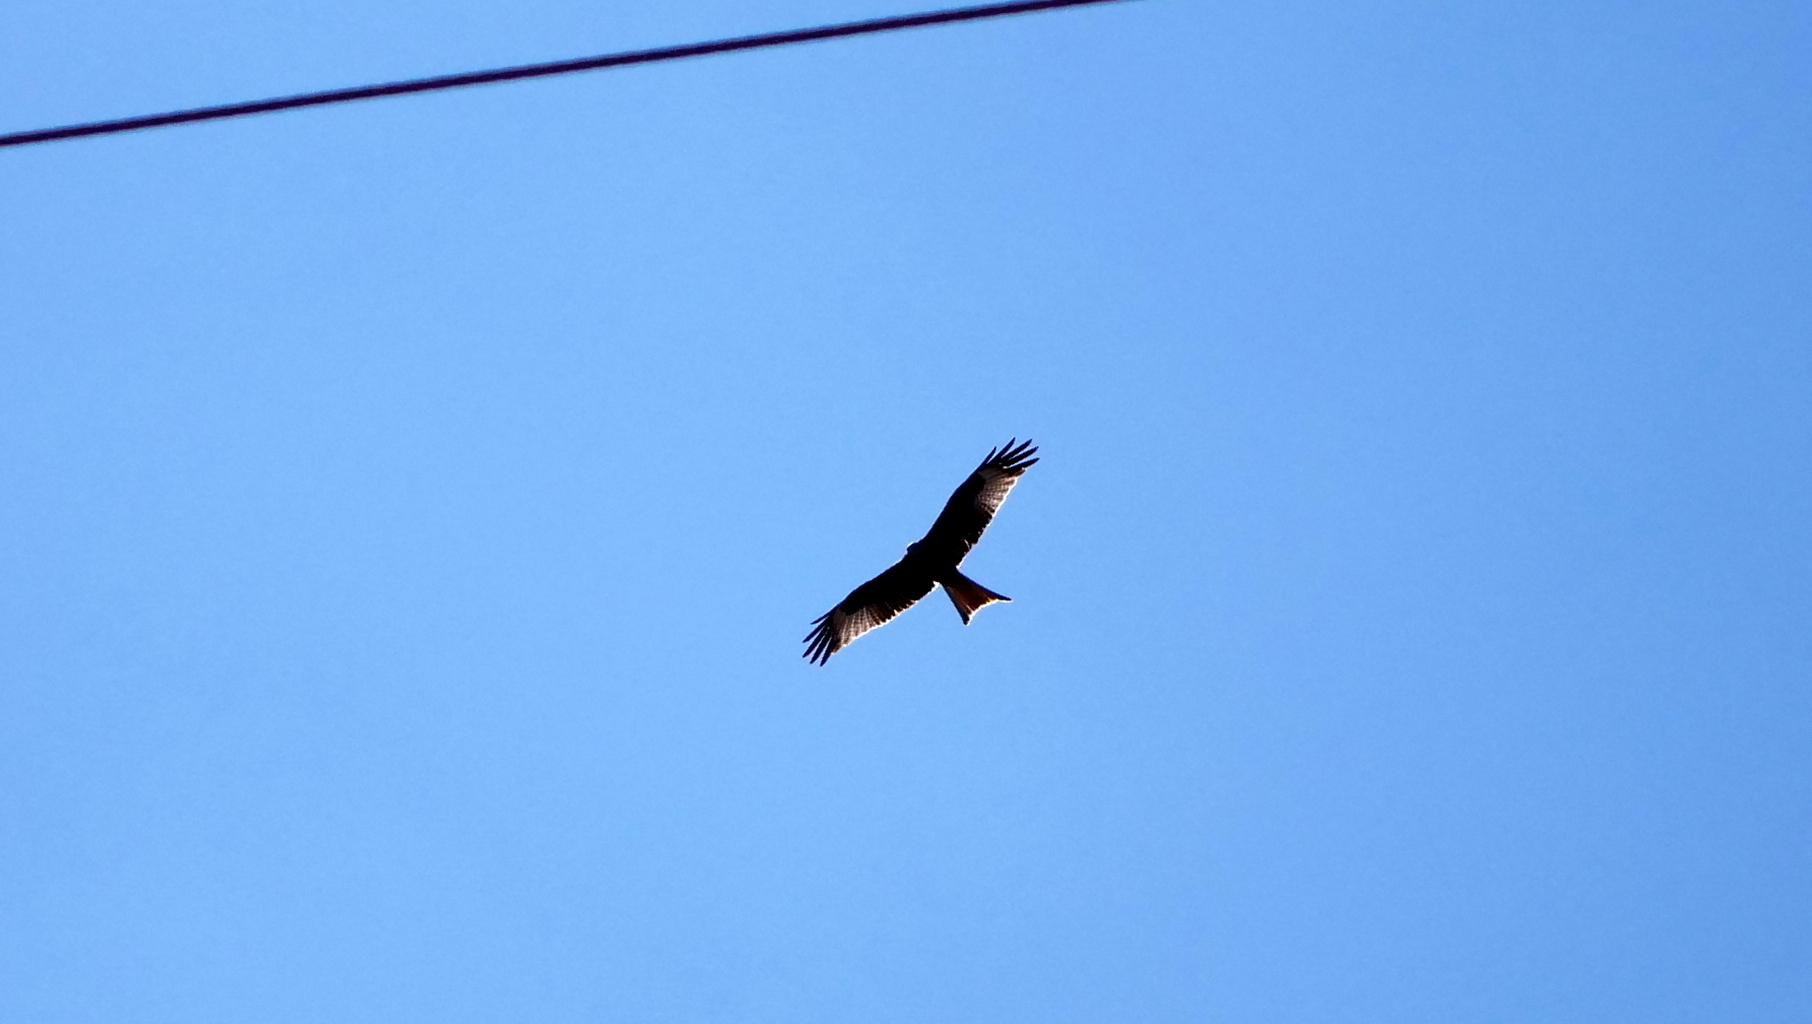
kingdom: Animalia
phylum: Chordata
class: Aves
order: Accipitriformes
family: Accipitridae
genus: Milvus
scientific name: Milvus milvus
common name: Red kite
